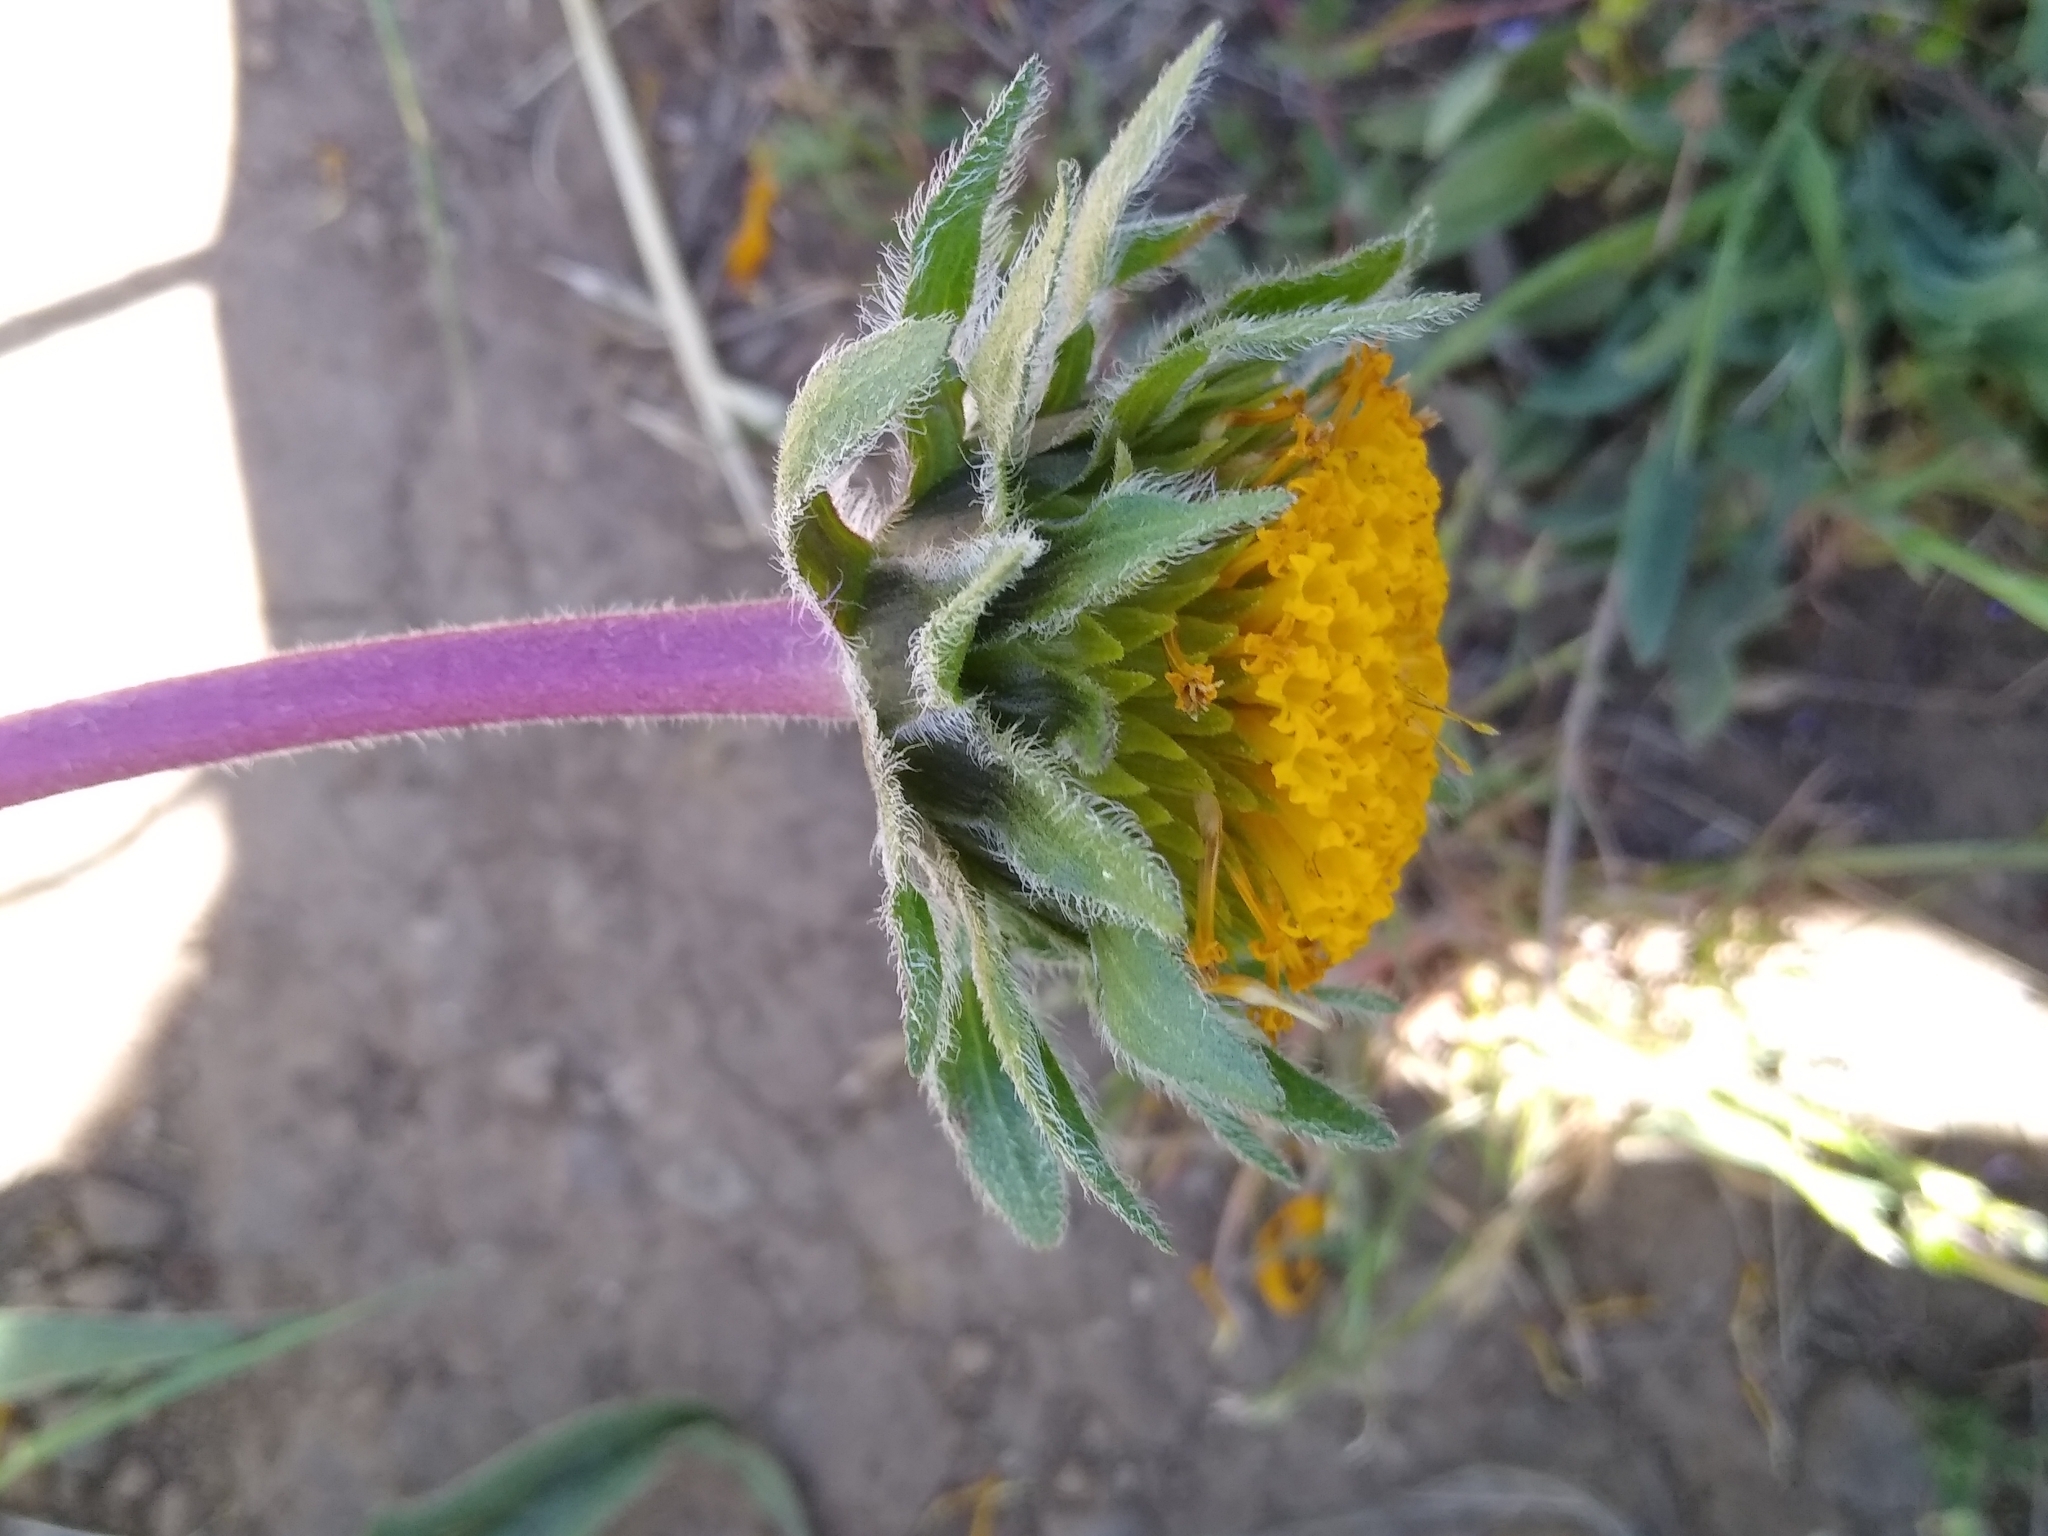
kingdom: Plantae
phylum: Tracheophyta
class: Magnoliopsida
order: Asterales
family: Asteraceae
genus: Wyethia
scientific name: Wyethia angustifolia
